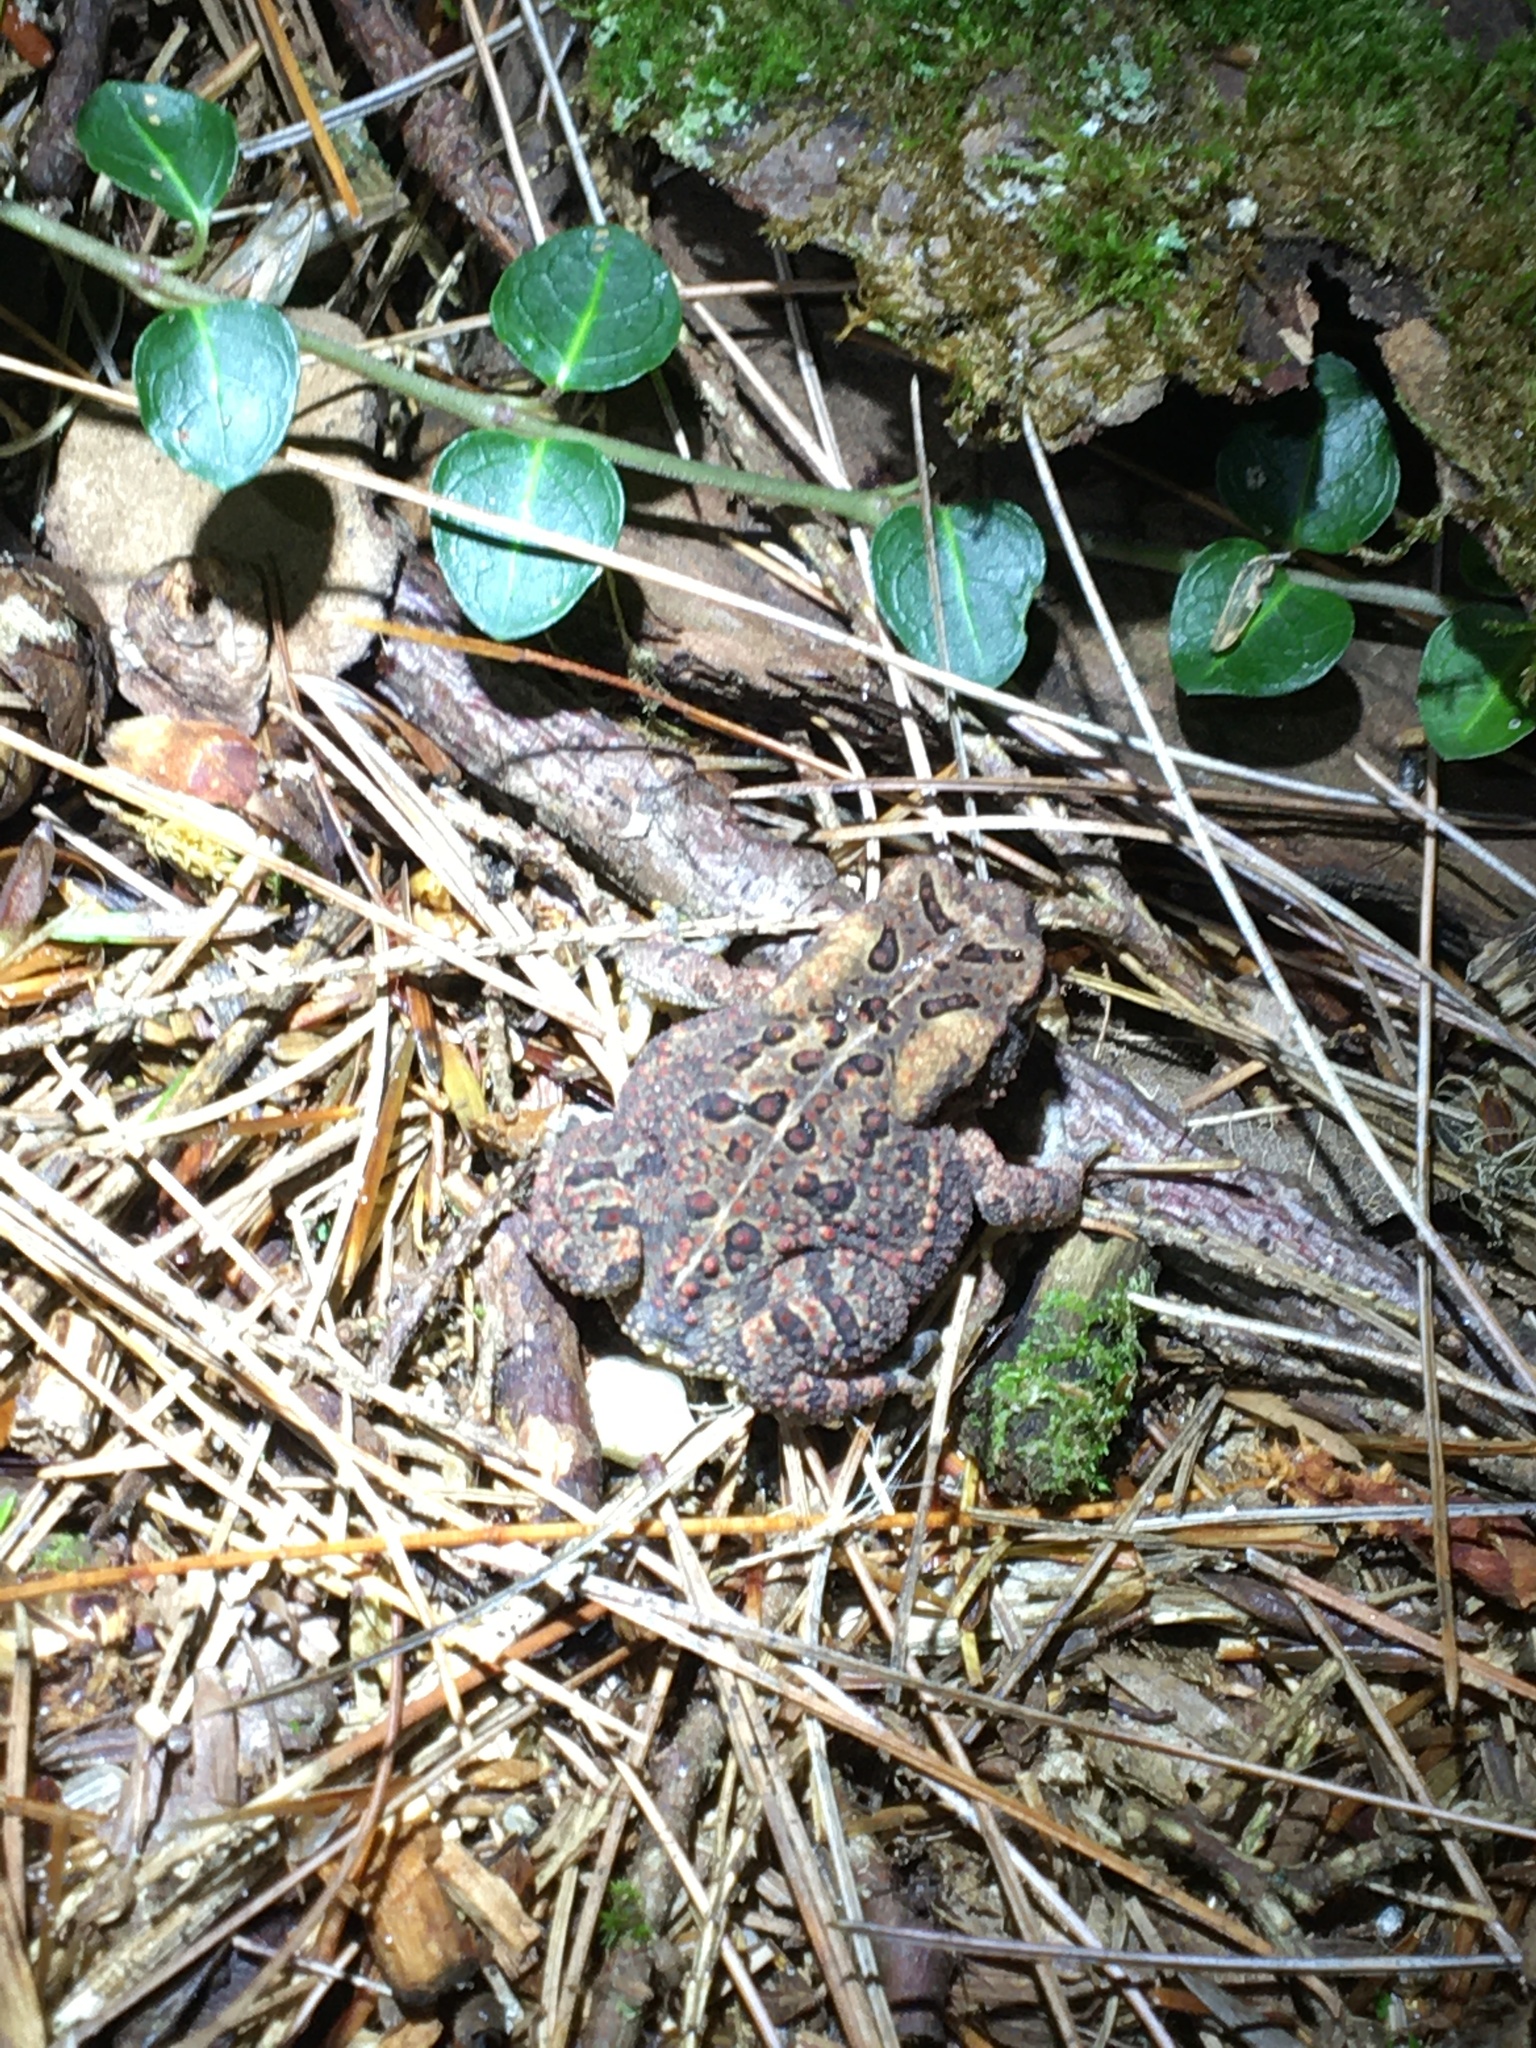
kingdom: Animalia
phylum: Chordata
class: Amphibia
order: Anura
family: Bufonidae
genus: Anaxyrus
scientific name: Anaxyrus americanus
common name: American toad
